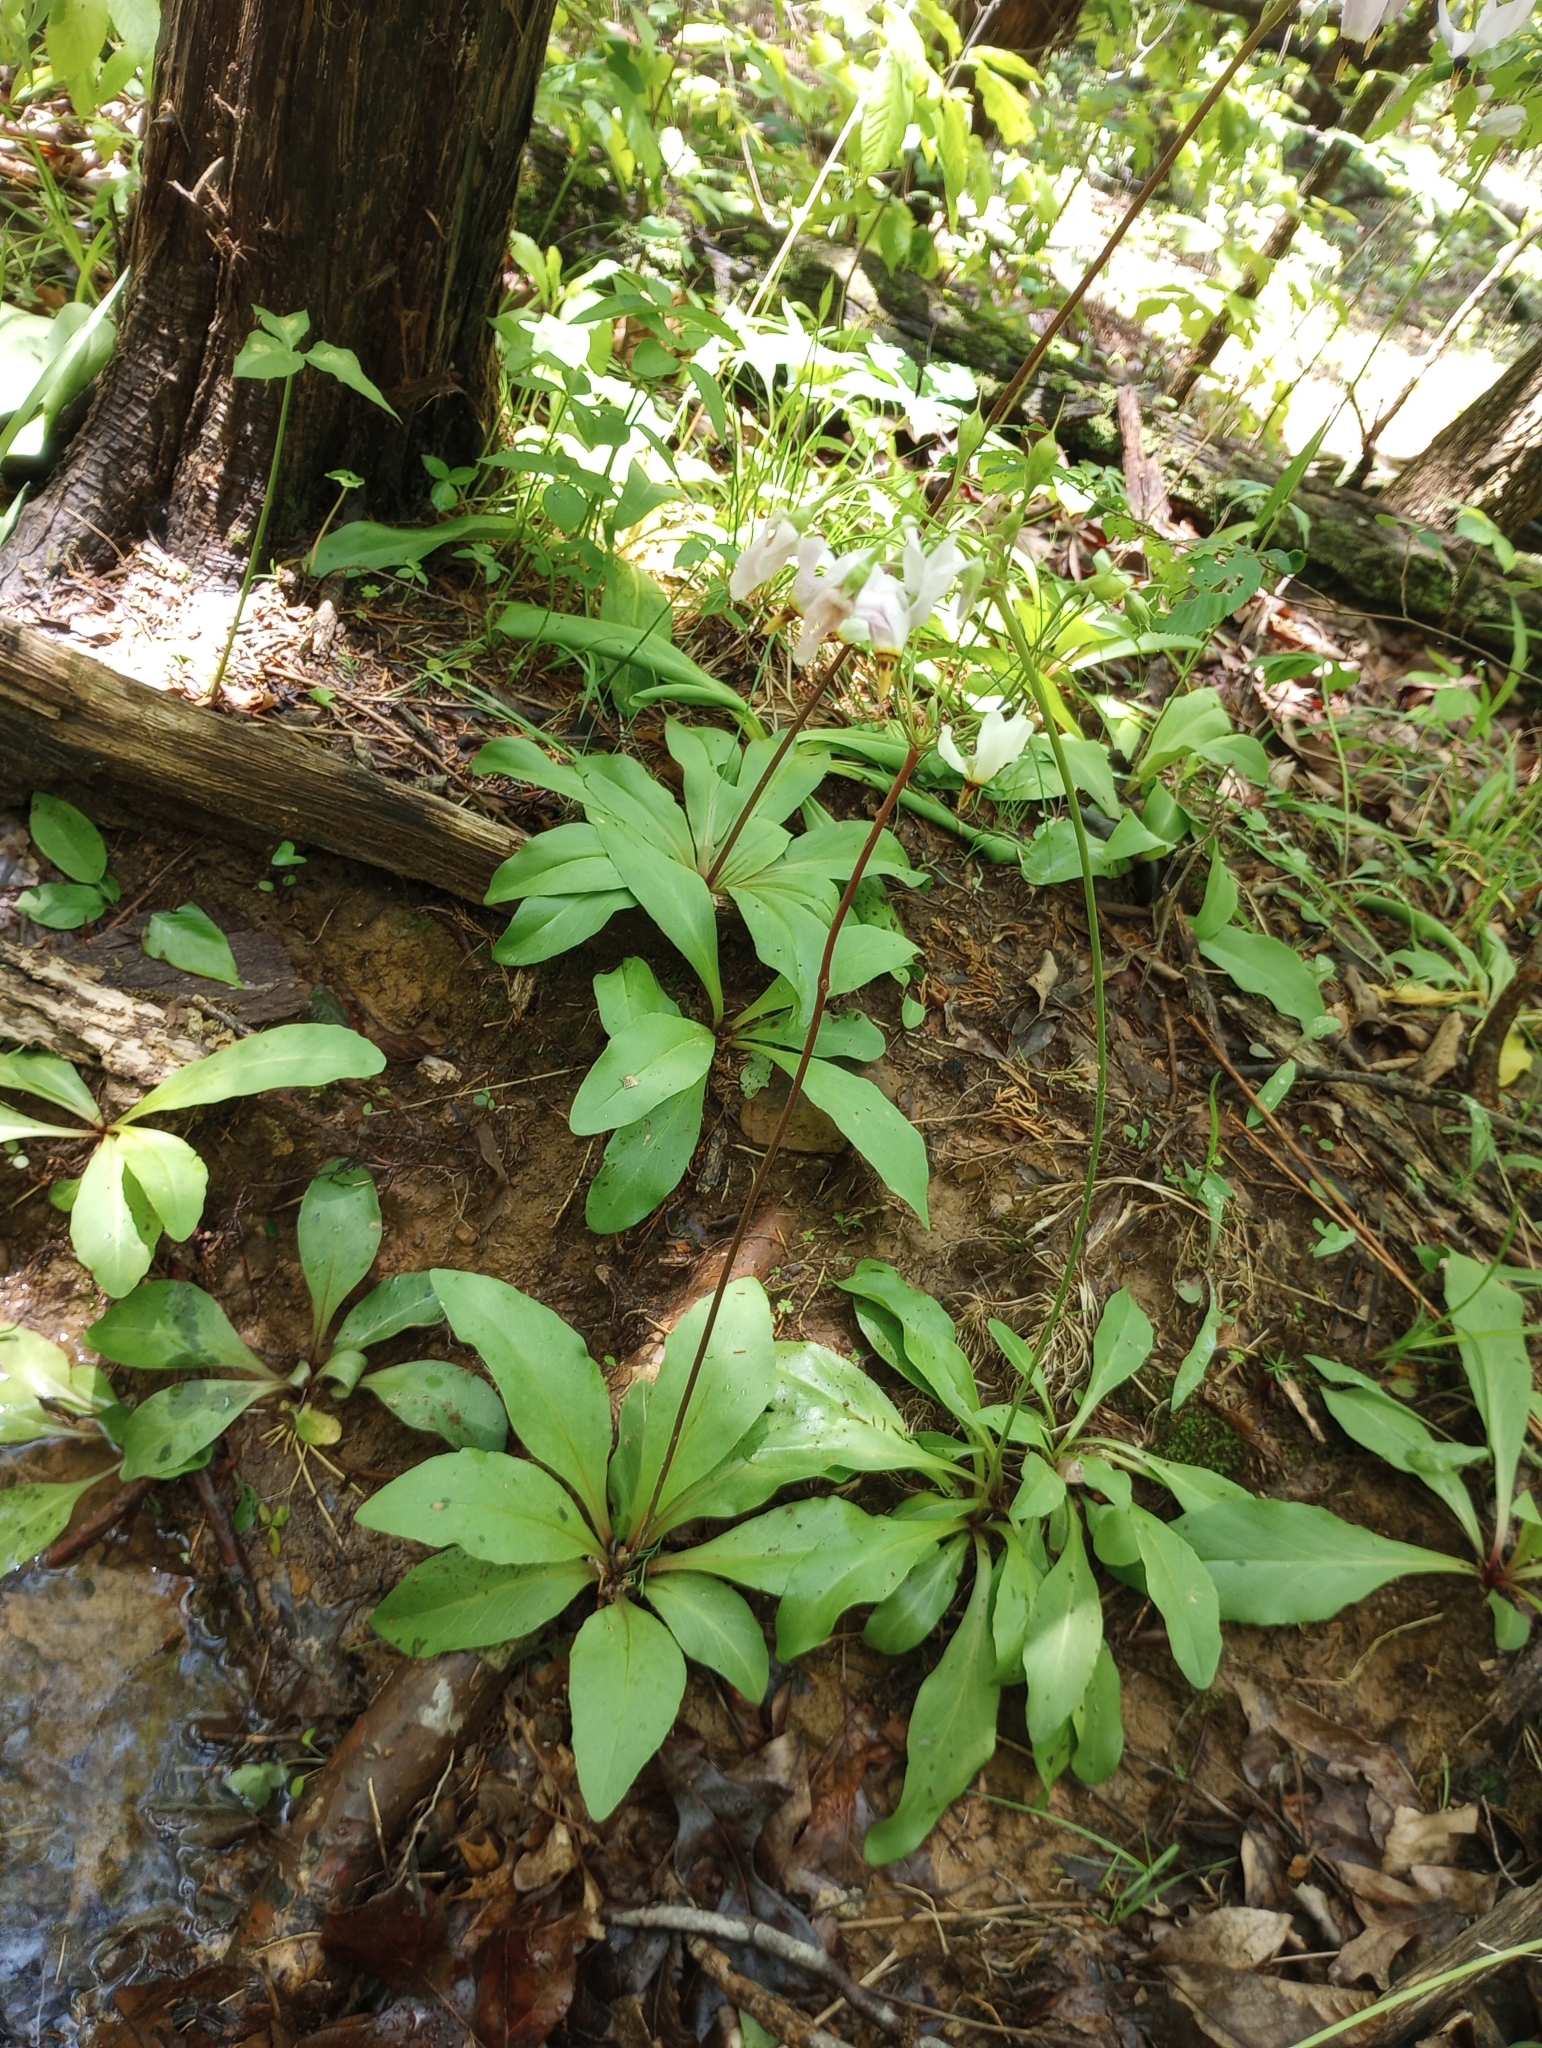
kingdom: Plantae
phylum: Tracheophyta
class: Magnoliopsida
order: Ericales
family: Primulaceae
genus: Dodecatheon
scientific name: Dodecatheon meadia
